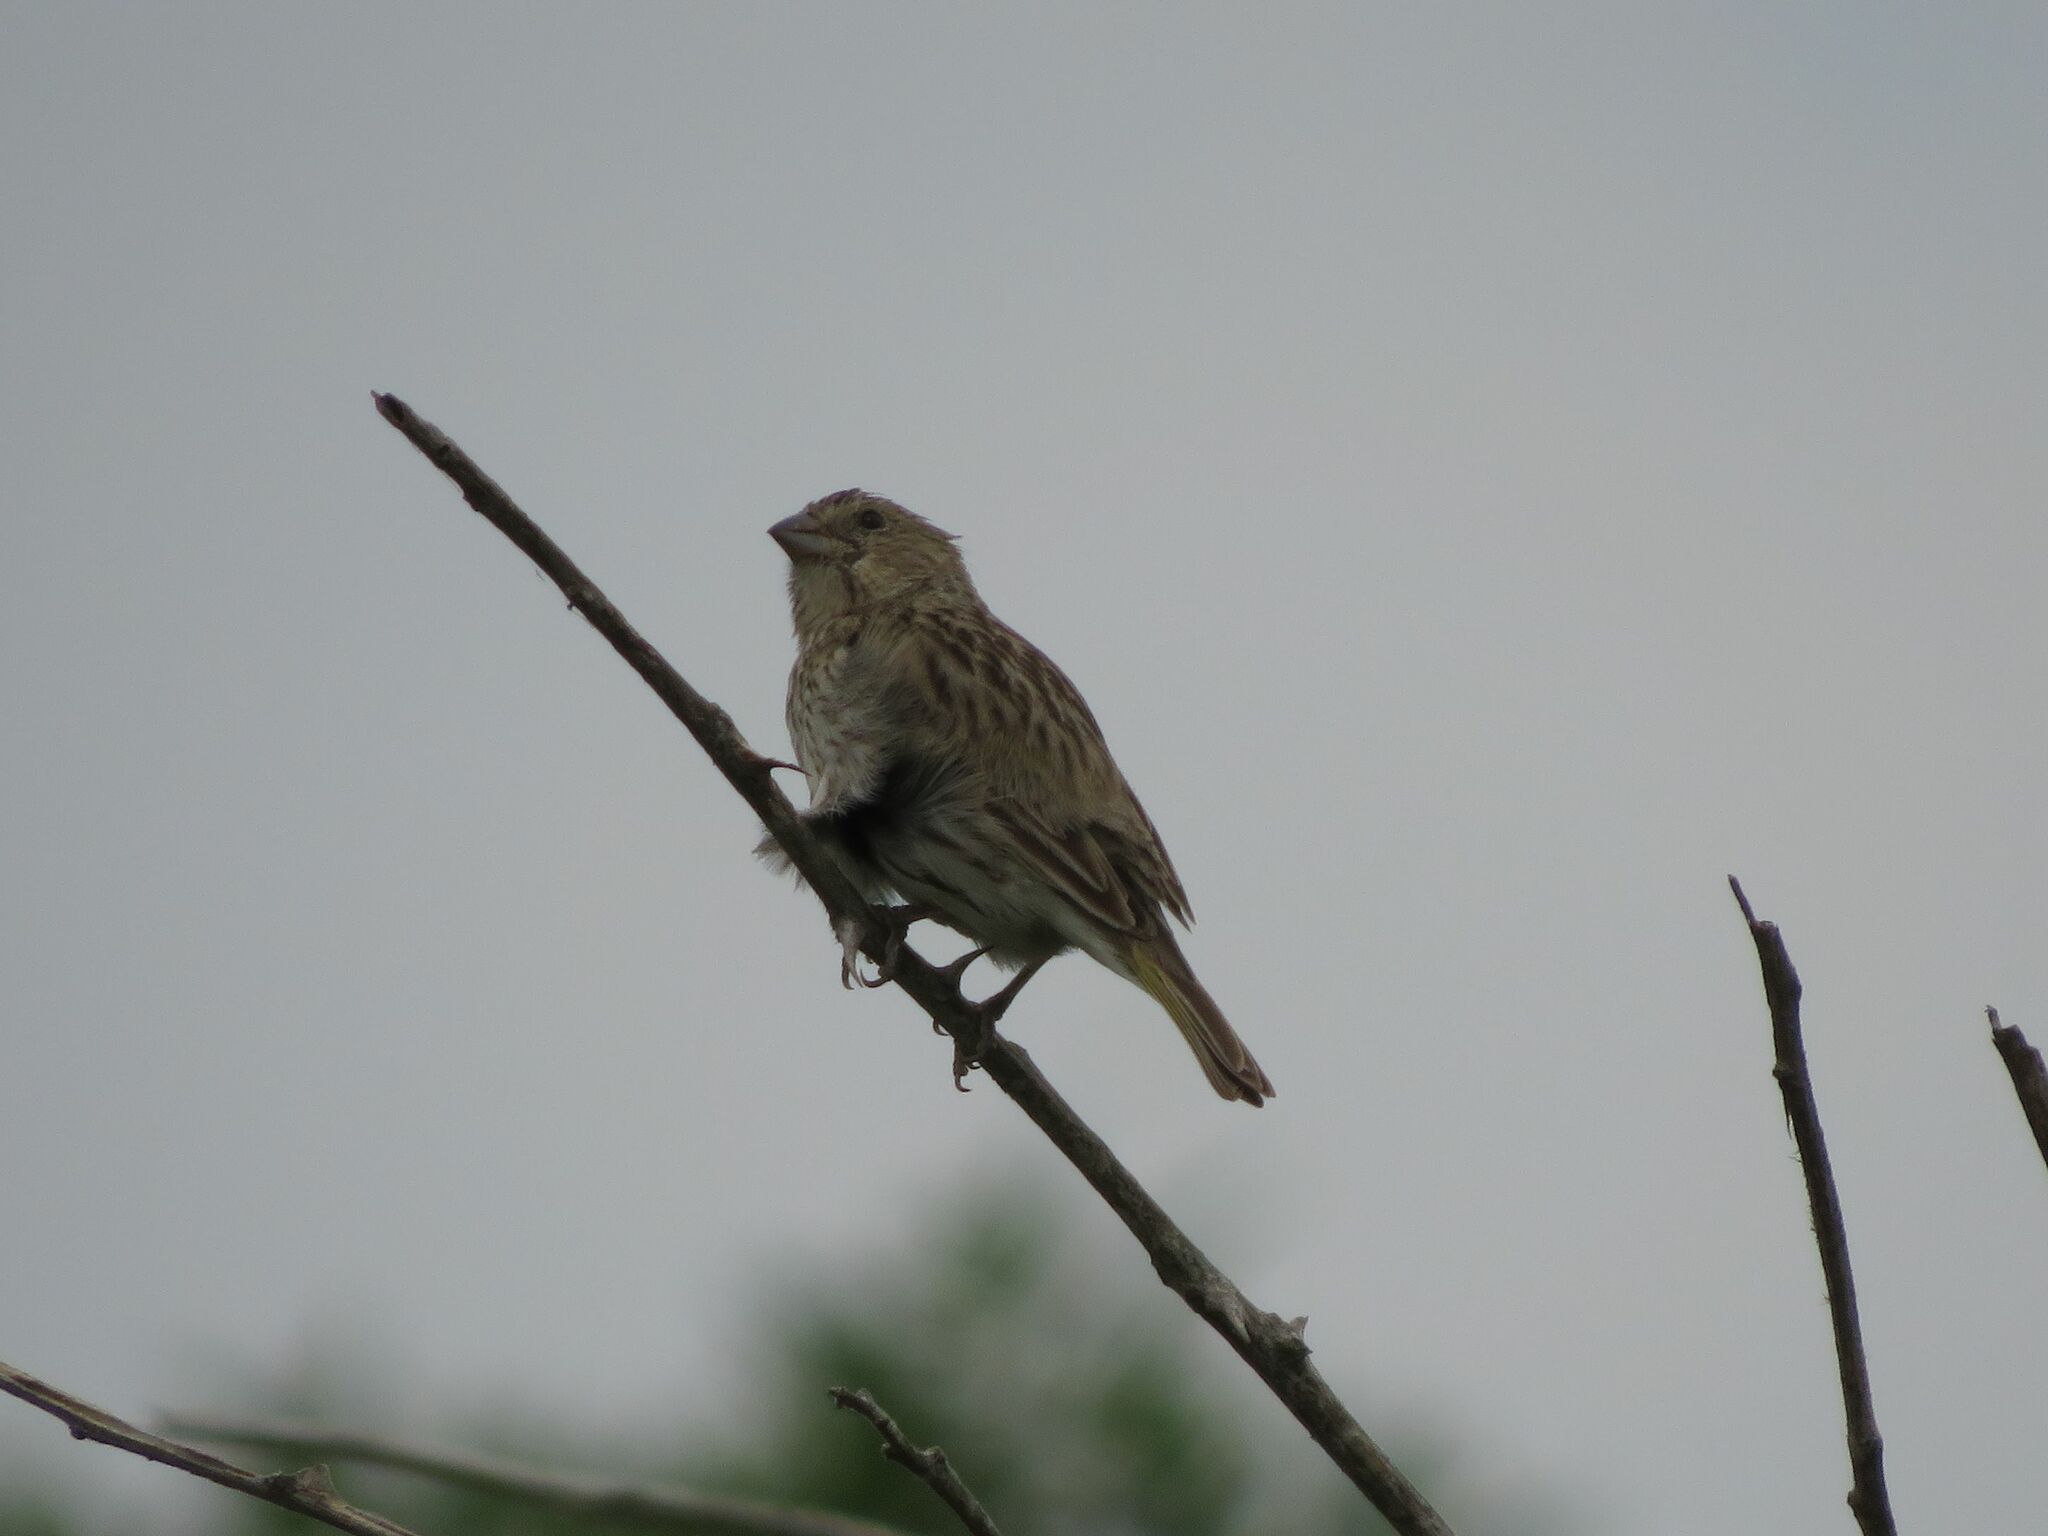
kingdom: Animalia
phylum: Chordata
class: Aves
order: Passeriformes
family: Thraupidae
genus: Sicalis
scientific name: Sicalis flaveola
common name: Saffron finch
